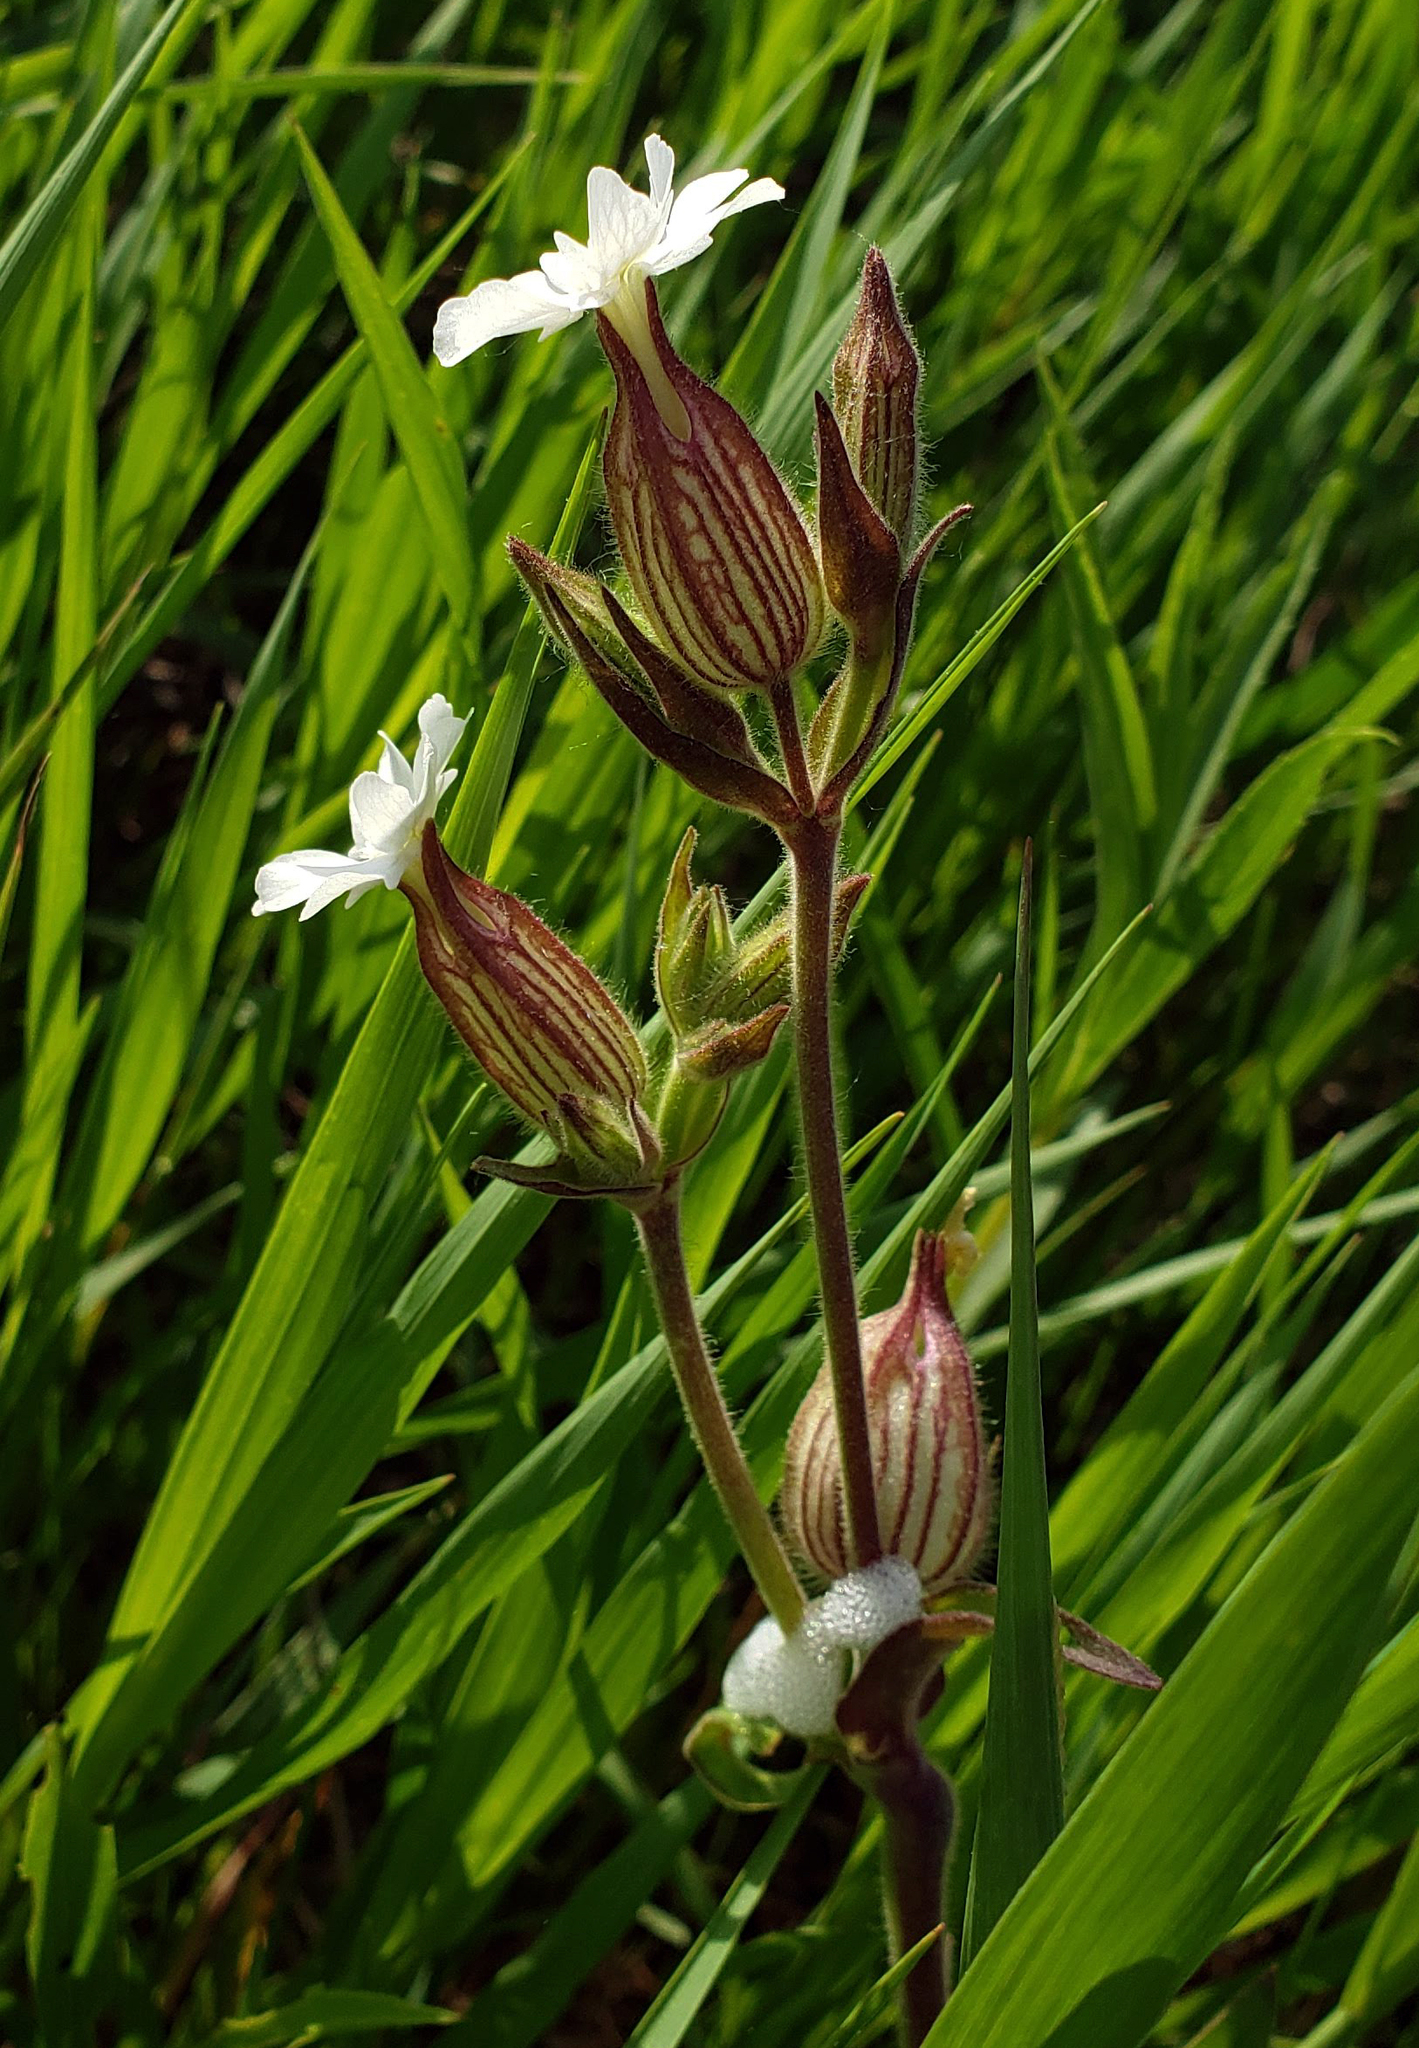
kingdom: Plantae
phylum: Tracheophyta
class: Magnoliopsida
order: Caryophyllales
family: Caryophyllaceae
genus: Silene
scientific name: Silene latifolia
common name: White campion
